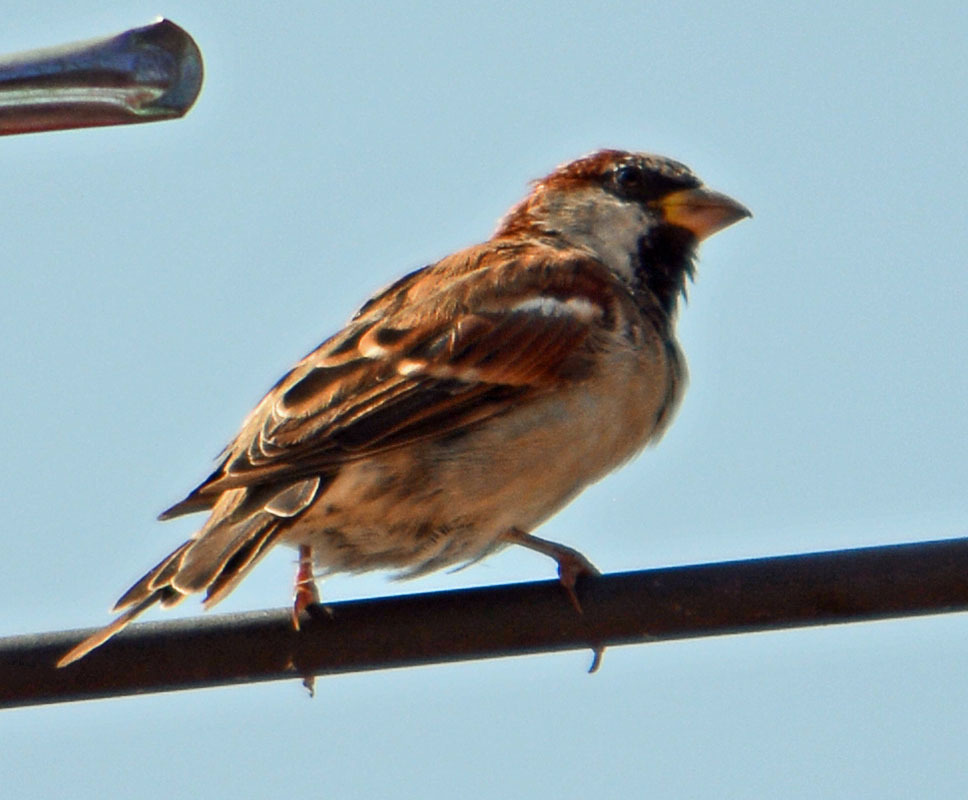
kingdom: Animalia
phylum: Chordata
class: Aves
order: Passeriformes
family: Passeridae
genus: Passer
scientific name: Passer domesticus
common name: House sparrow
